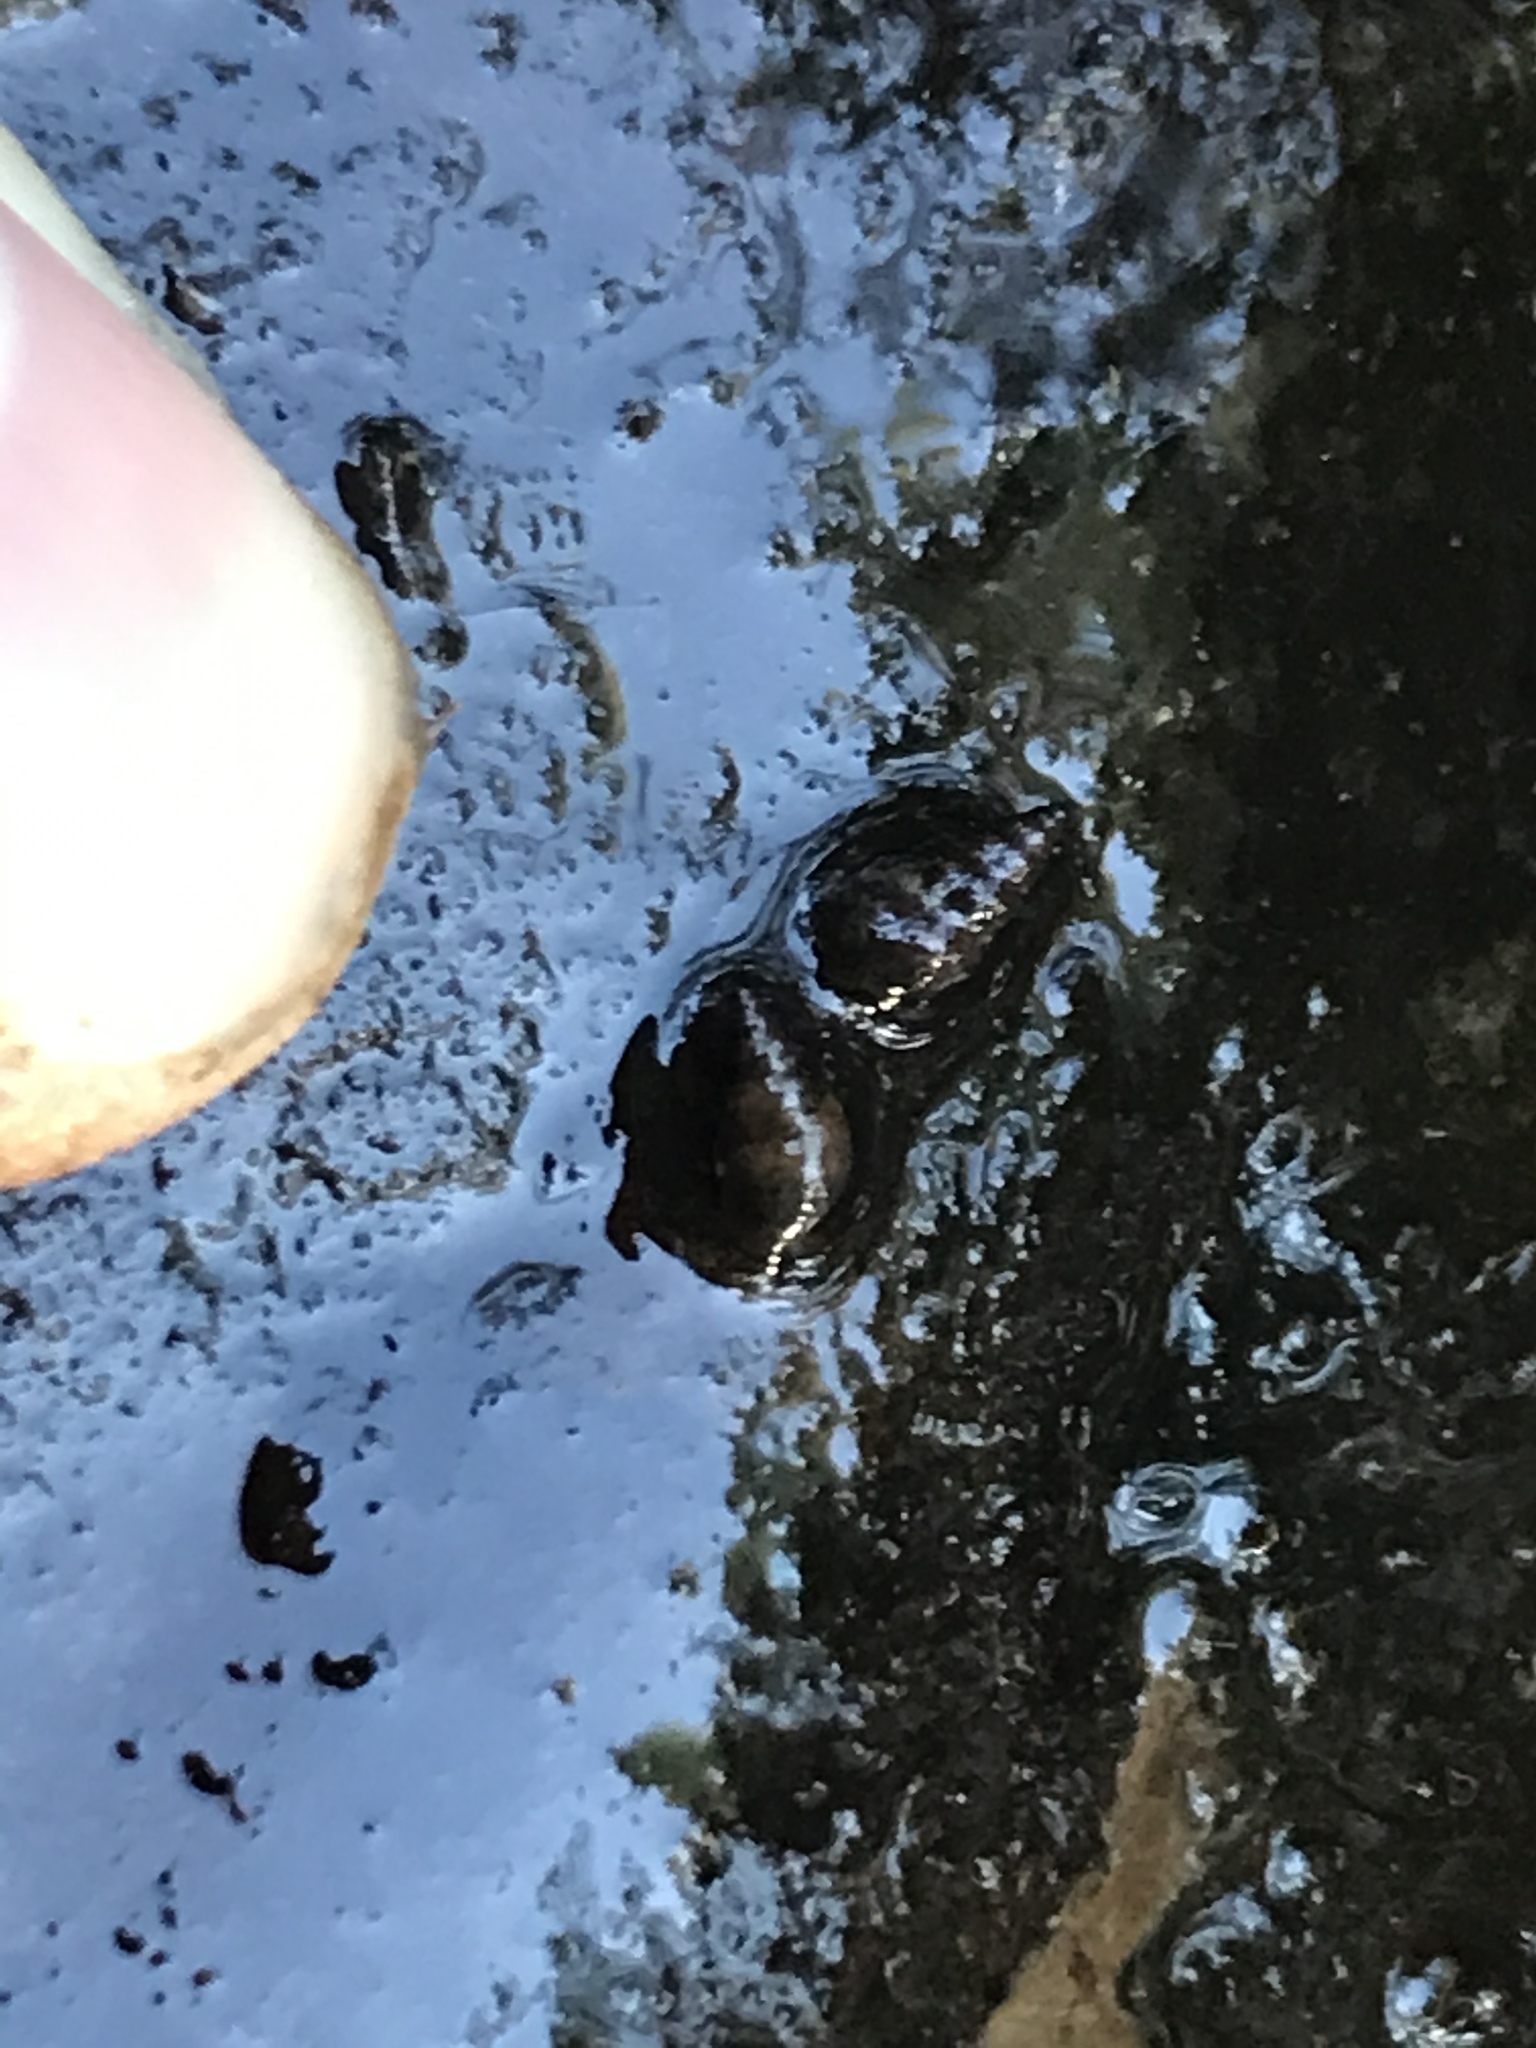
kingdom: Animalia
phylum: Mollusca
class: Gastropoda
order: Littorinimorpha
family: Tateidae
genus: Potamopyrgus
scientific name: Potamopyrgus antipodarum
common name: Jenkins' spire snail
